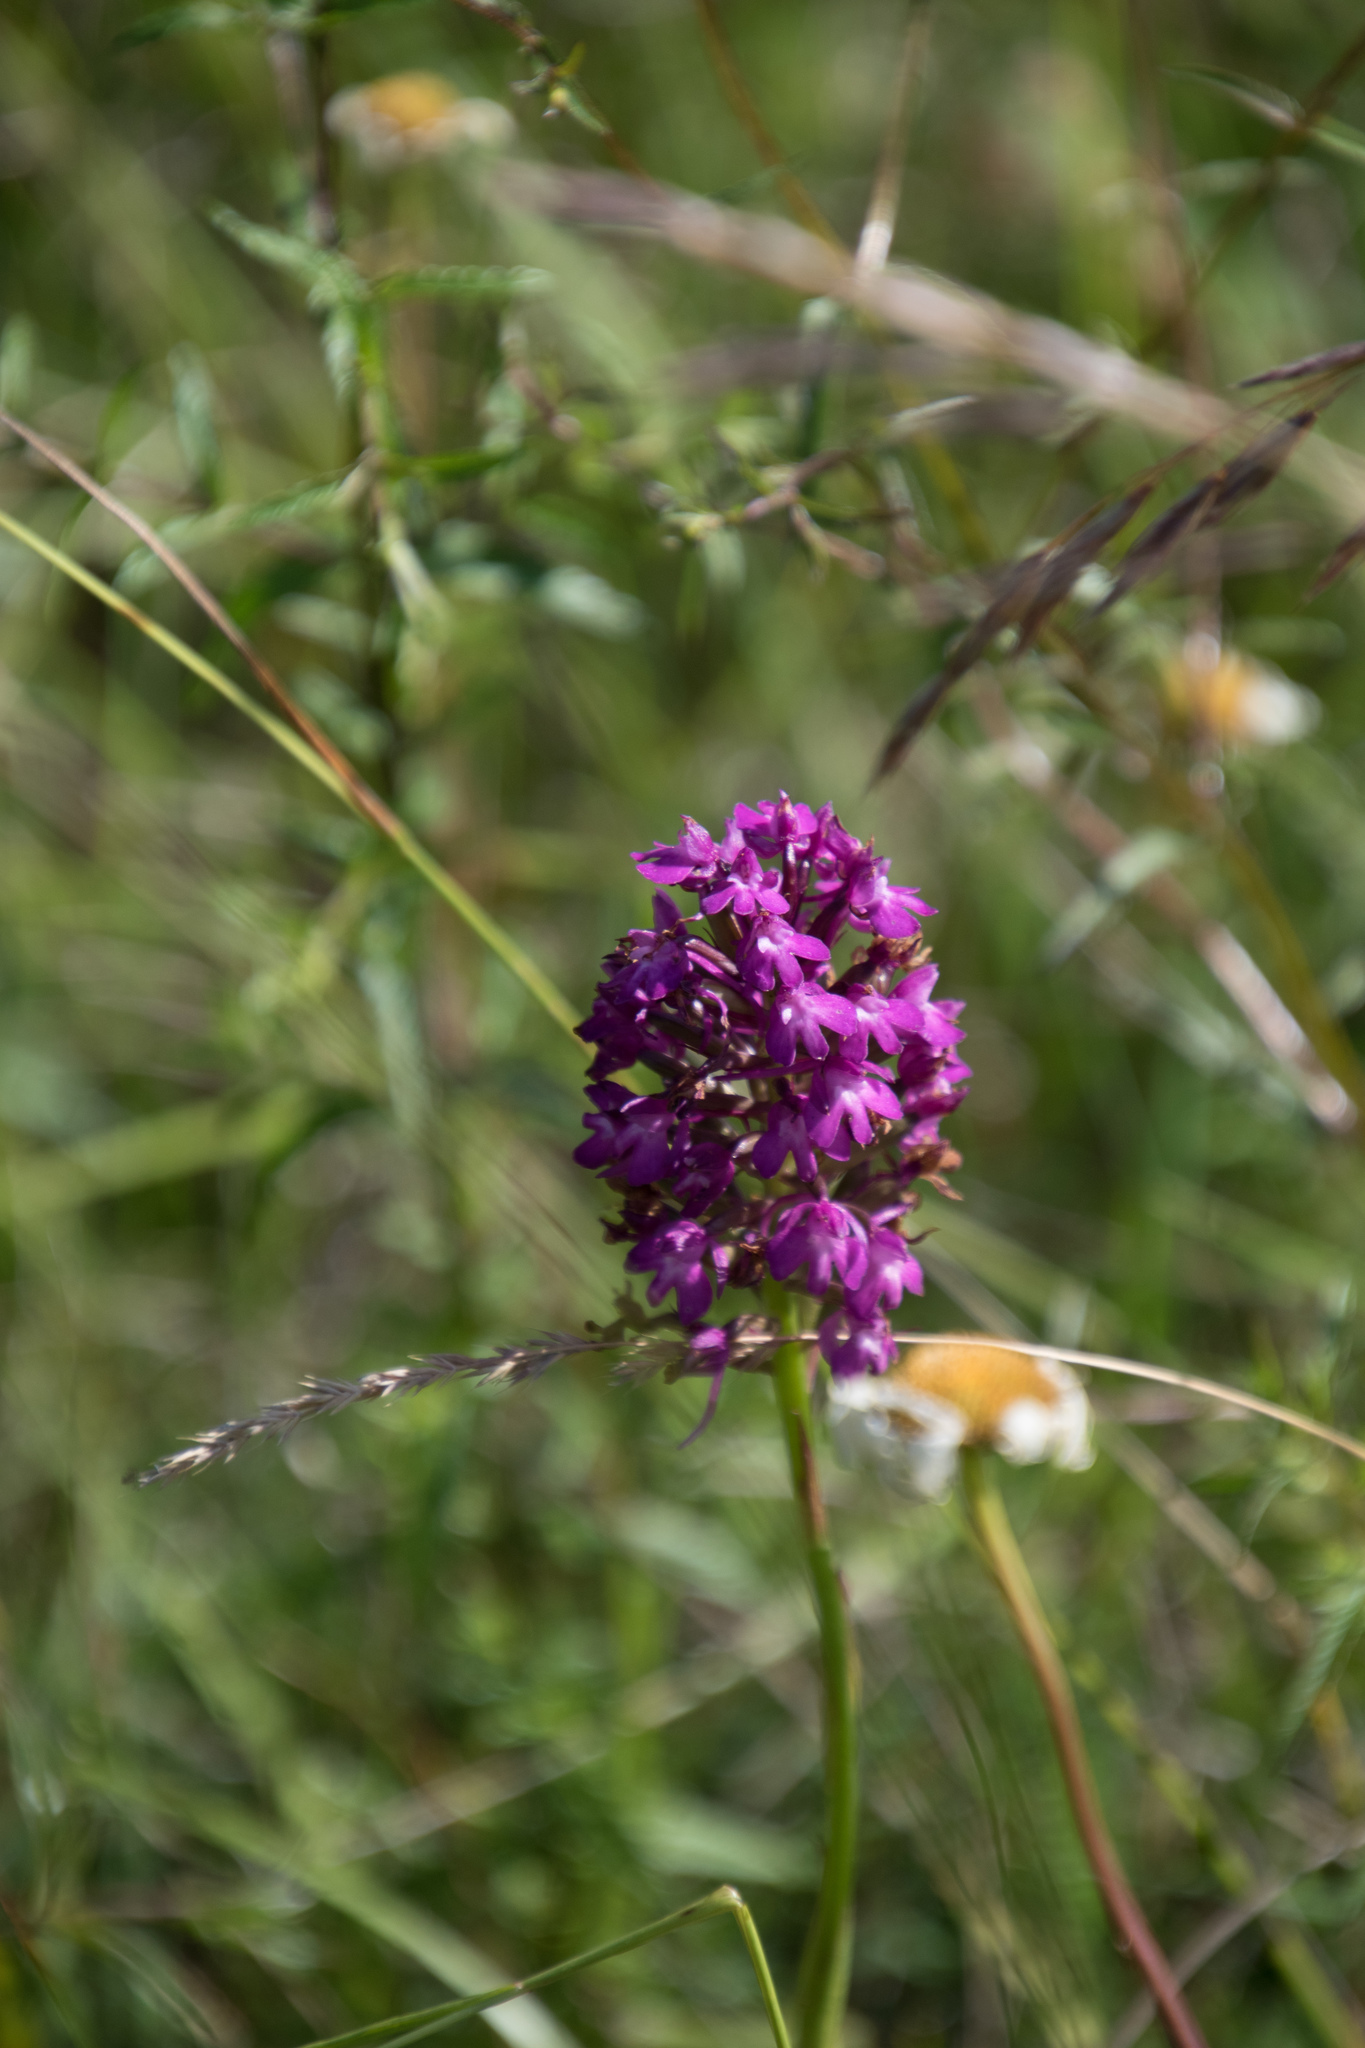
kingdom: Plantae
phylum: Tracheophyta
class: Liliopsida
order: Asparagales
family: Orchidaceae
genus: Anacamptis
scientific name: Anacamptis pyramidalis
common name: Pyramidal orchid
